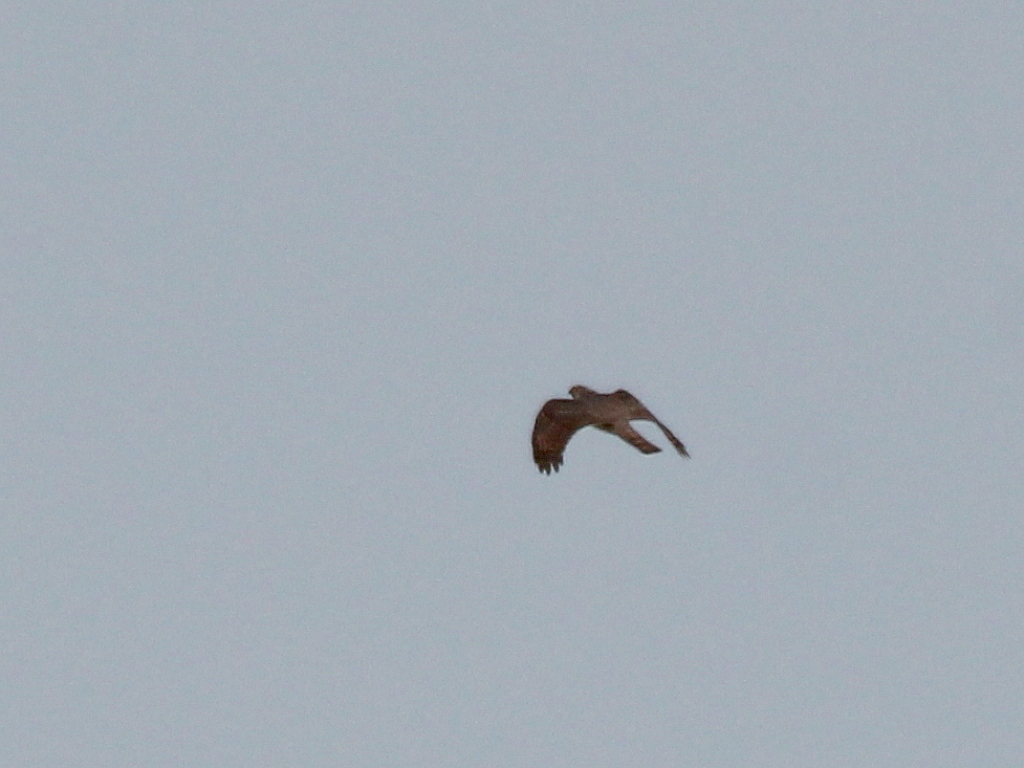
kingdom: Animalia
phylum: Chordata
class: Aves
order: Accipitriformes
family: Accipitridae
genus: Accipiter
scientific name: Accipiter nisus
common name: Eurasian sparrowhawk
